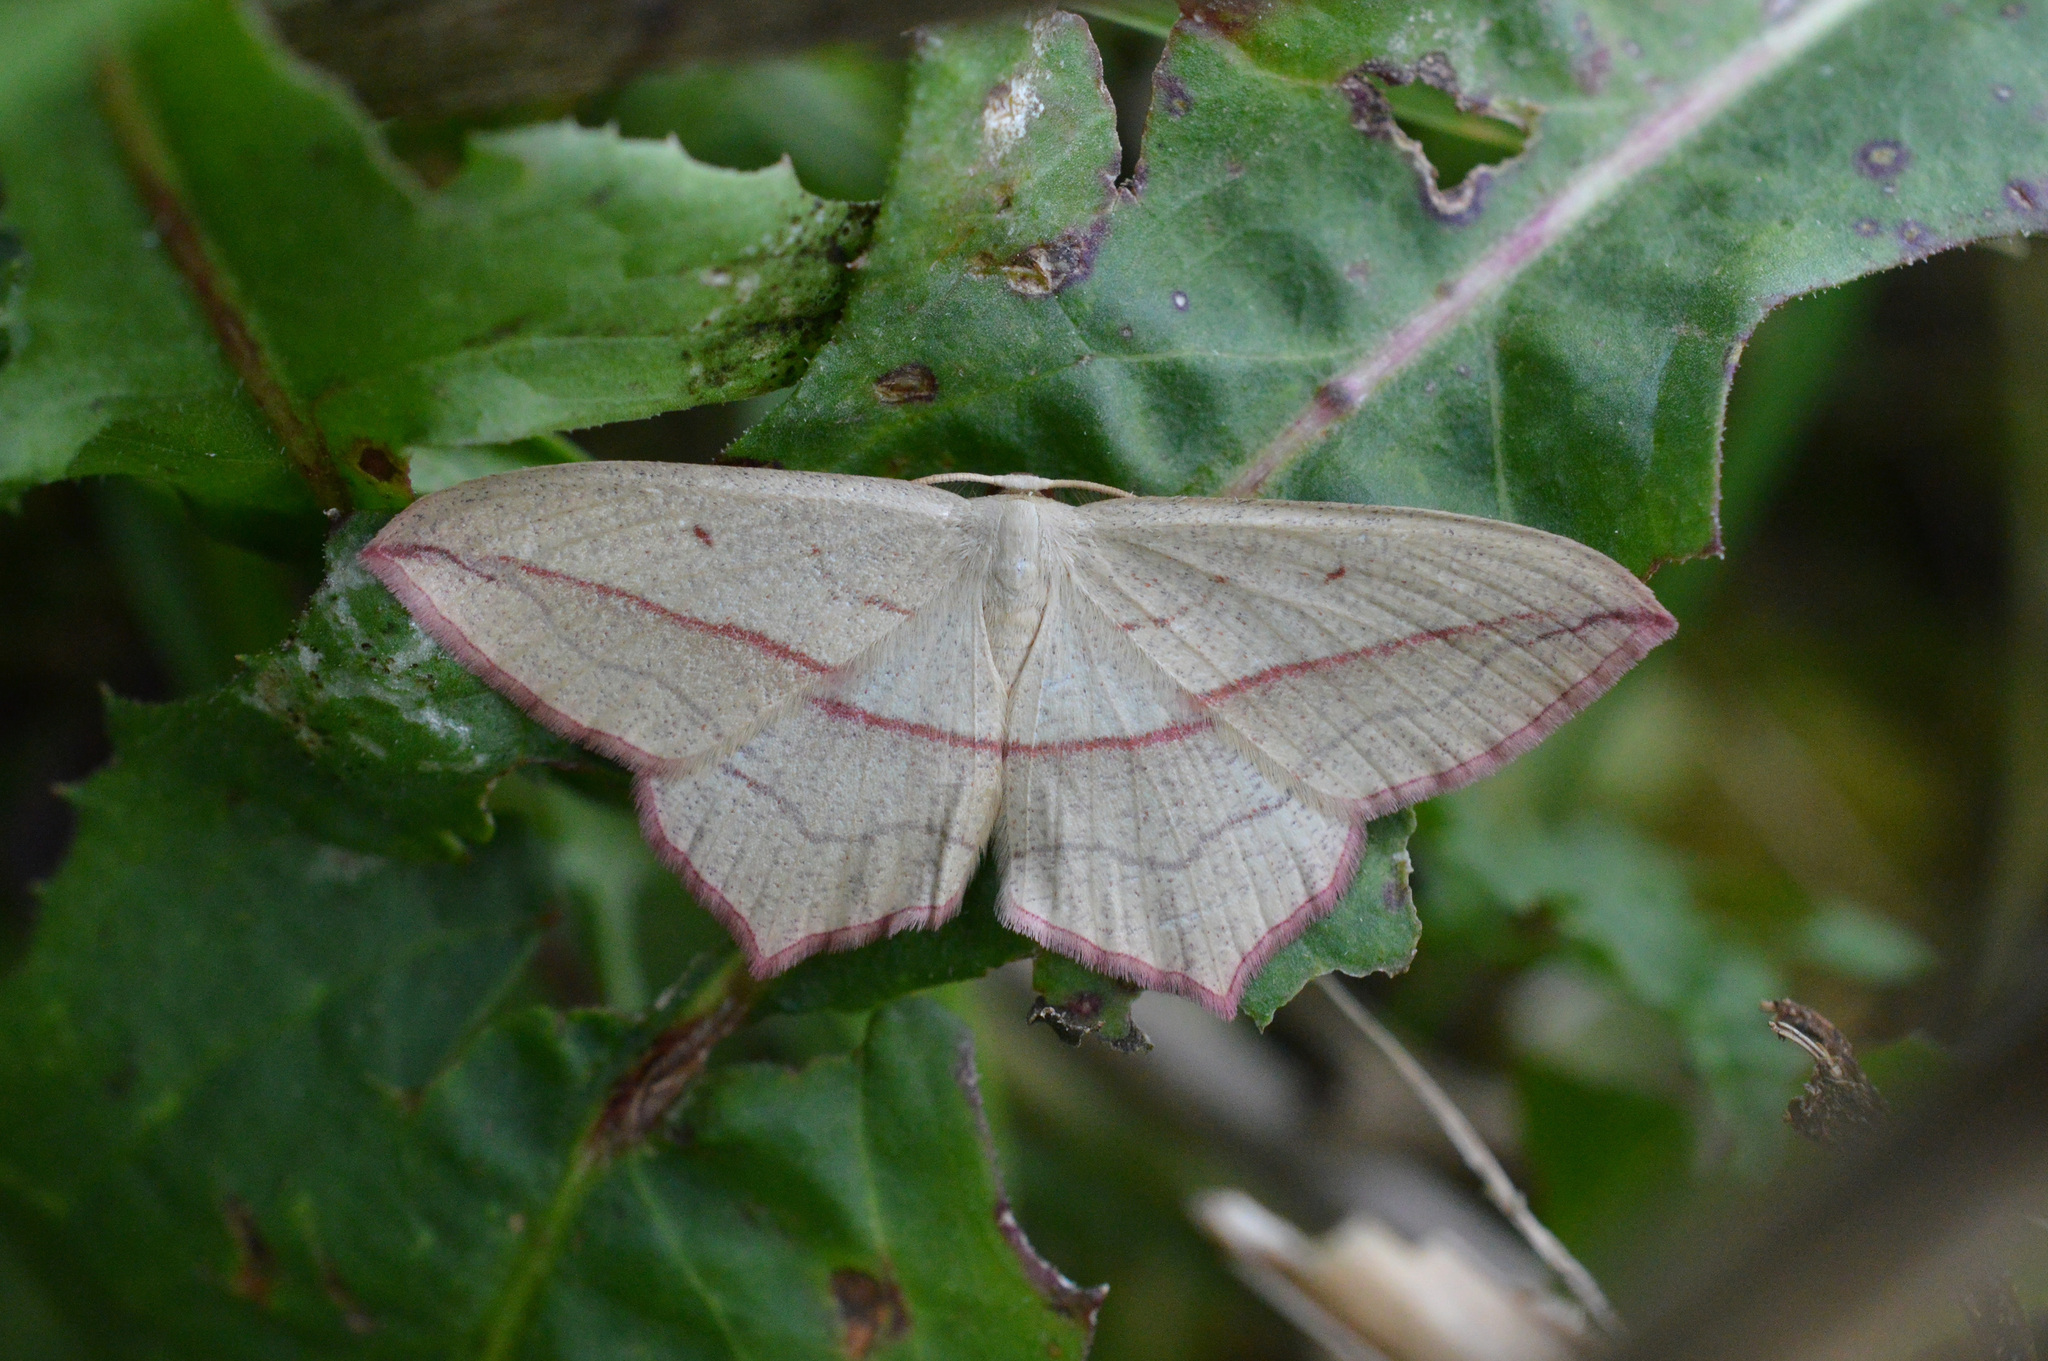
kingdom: Animalia
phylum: Arthropoda
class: Insecta
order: Lepidoptera
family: Geometridae
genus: Timandra
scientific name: Timandra comae
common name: Blood-vein
